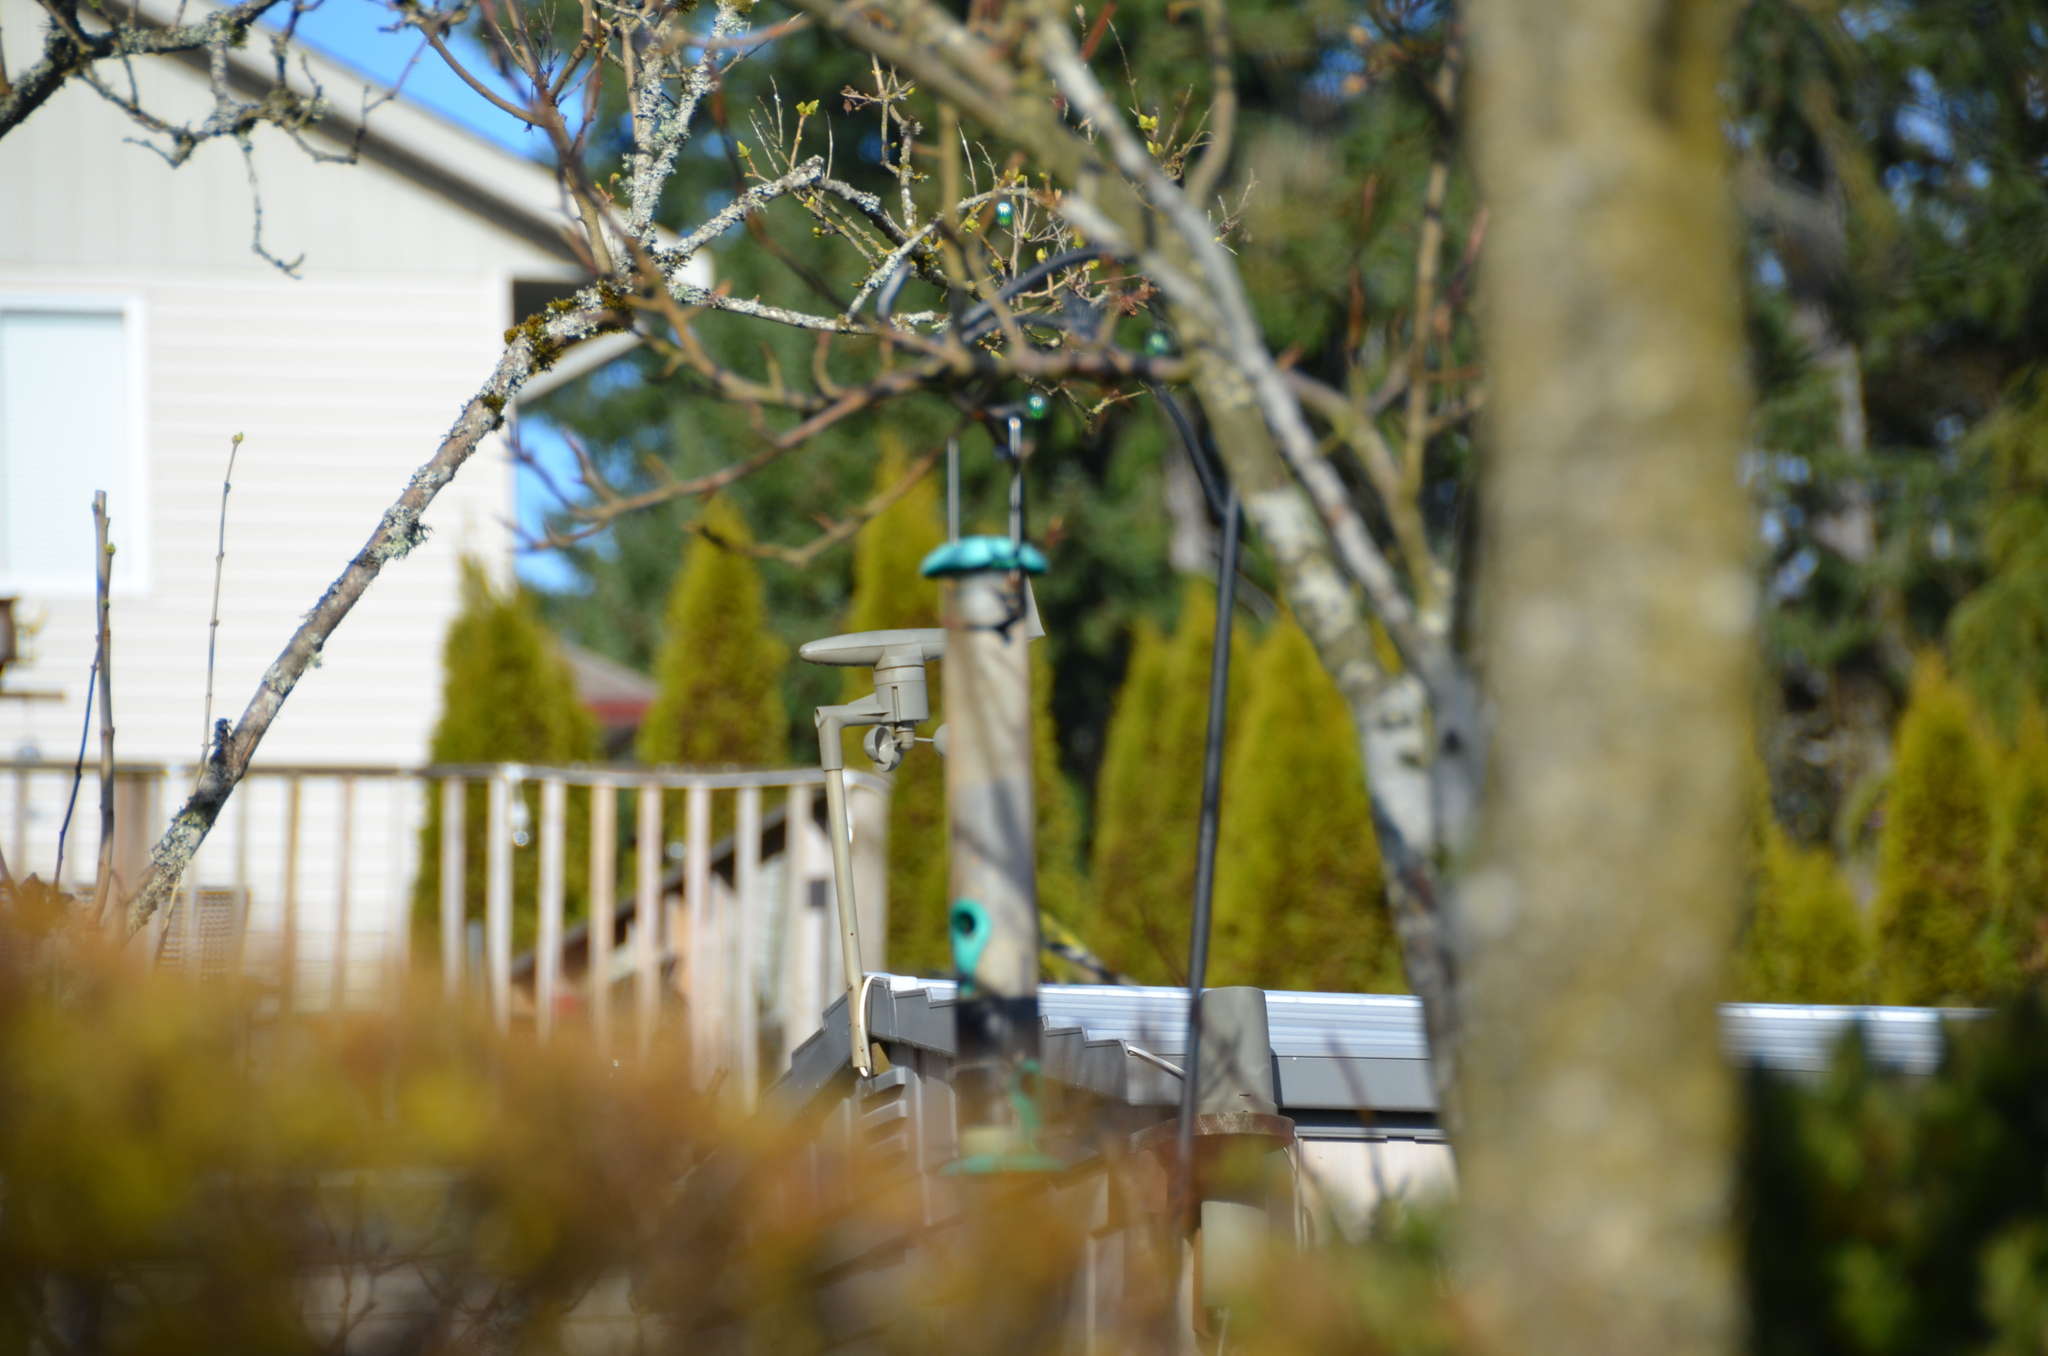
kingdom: Animalia
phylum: Chordata
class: Aves
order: Passeriformes
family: Fringillidae
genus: Spinus
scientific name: Spinus tristis
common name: American goldfinch
